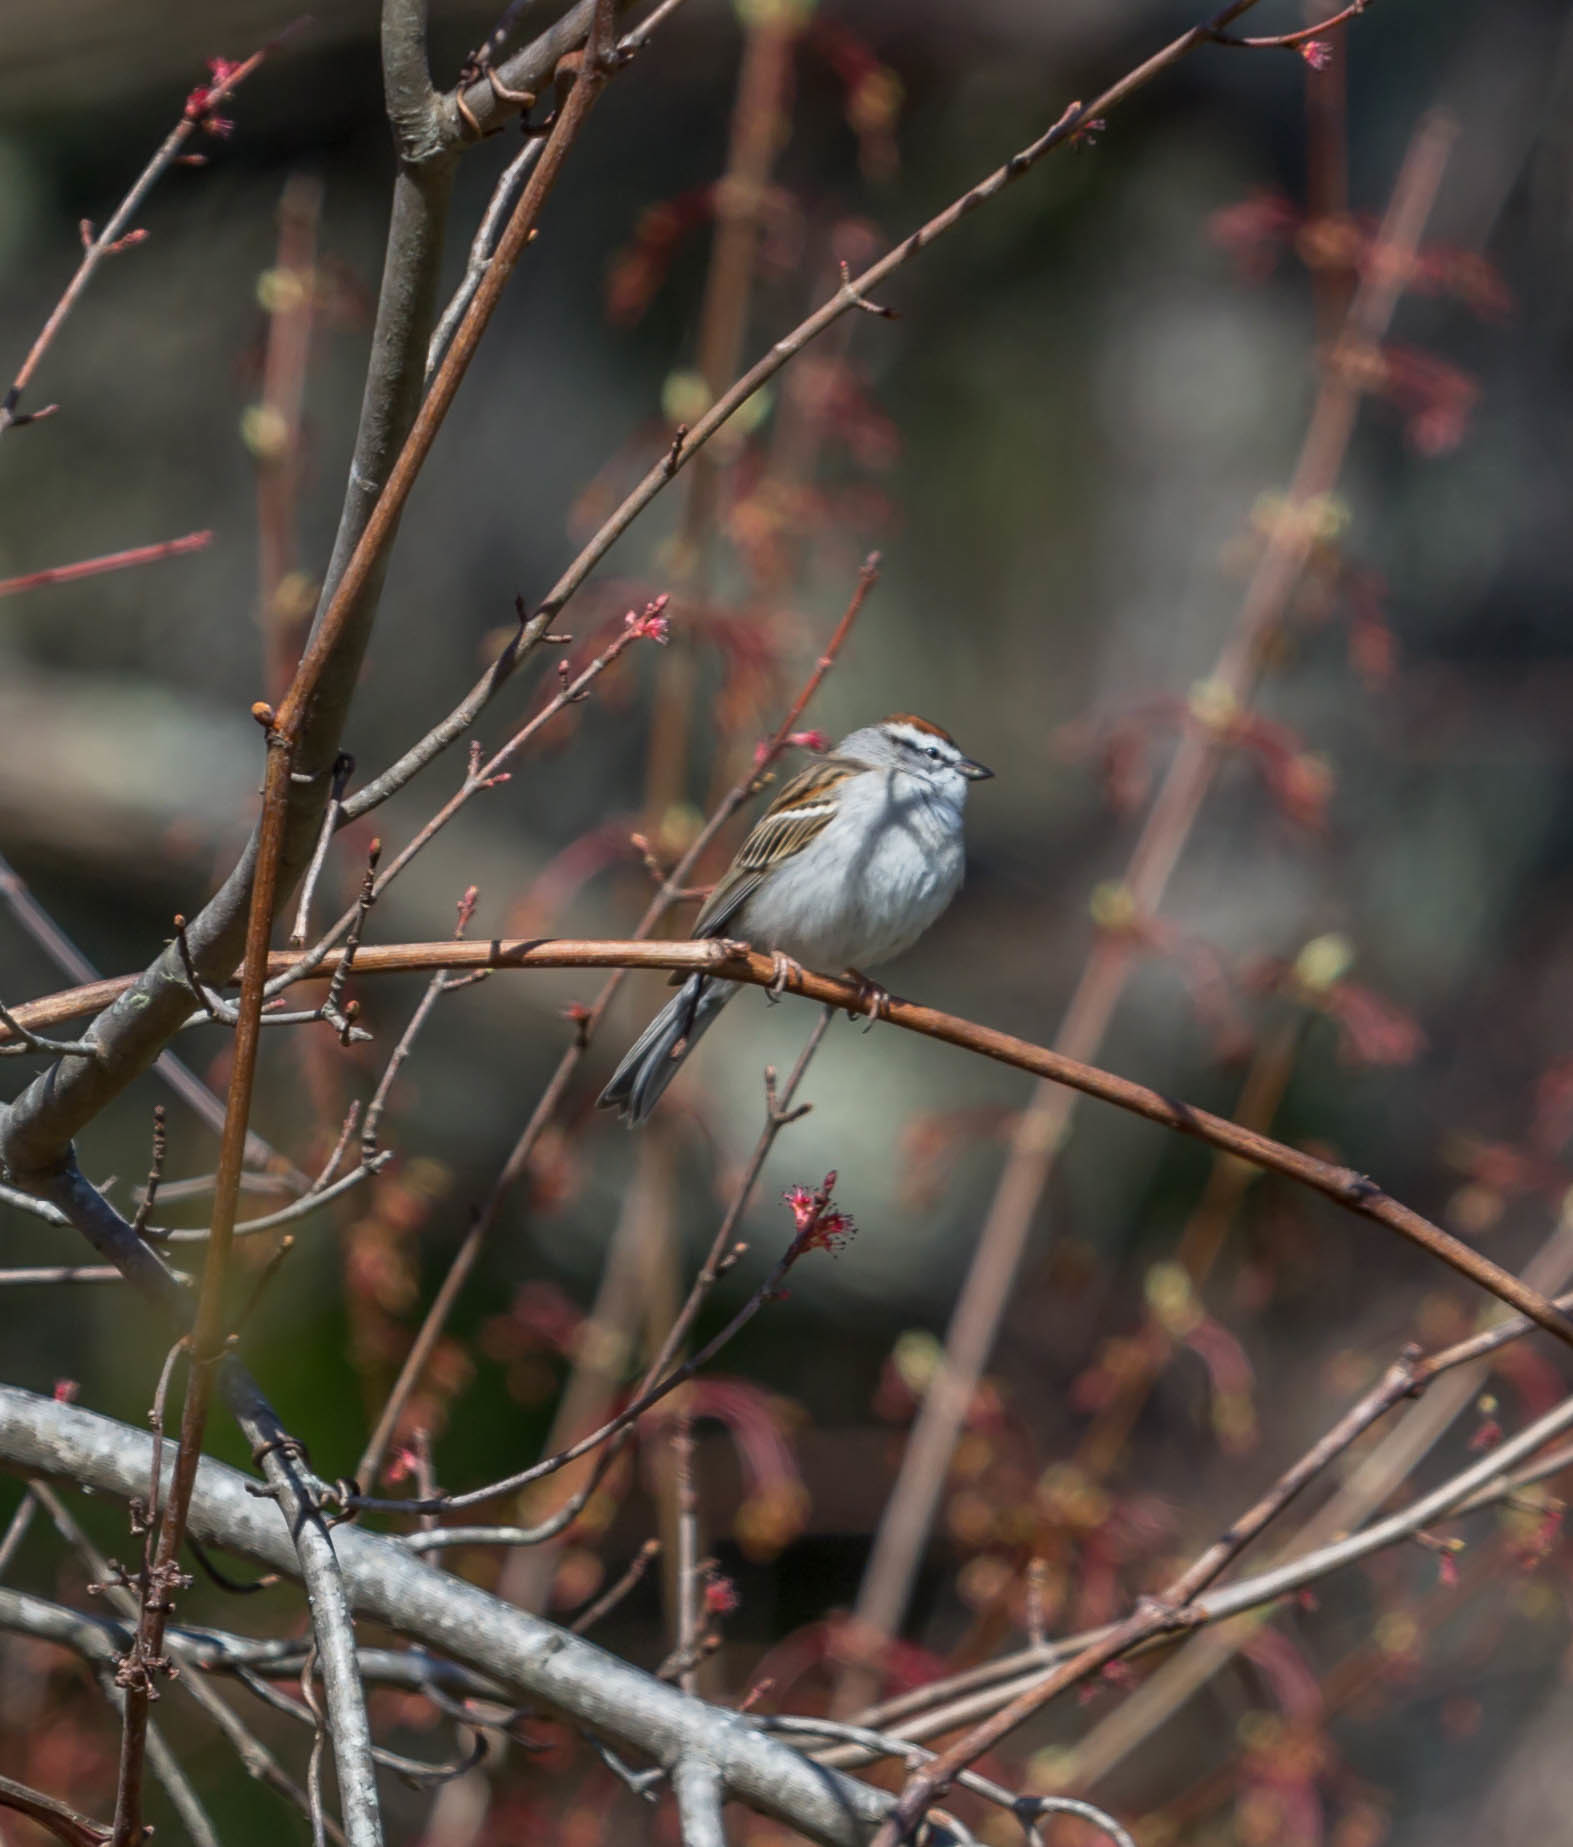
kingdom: Animalia
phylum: Chordata
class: Aves
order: Passeriformes
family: Passerellidae
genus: Spizella
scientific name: Spizella passerina
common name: Chipping sparrow
